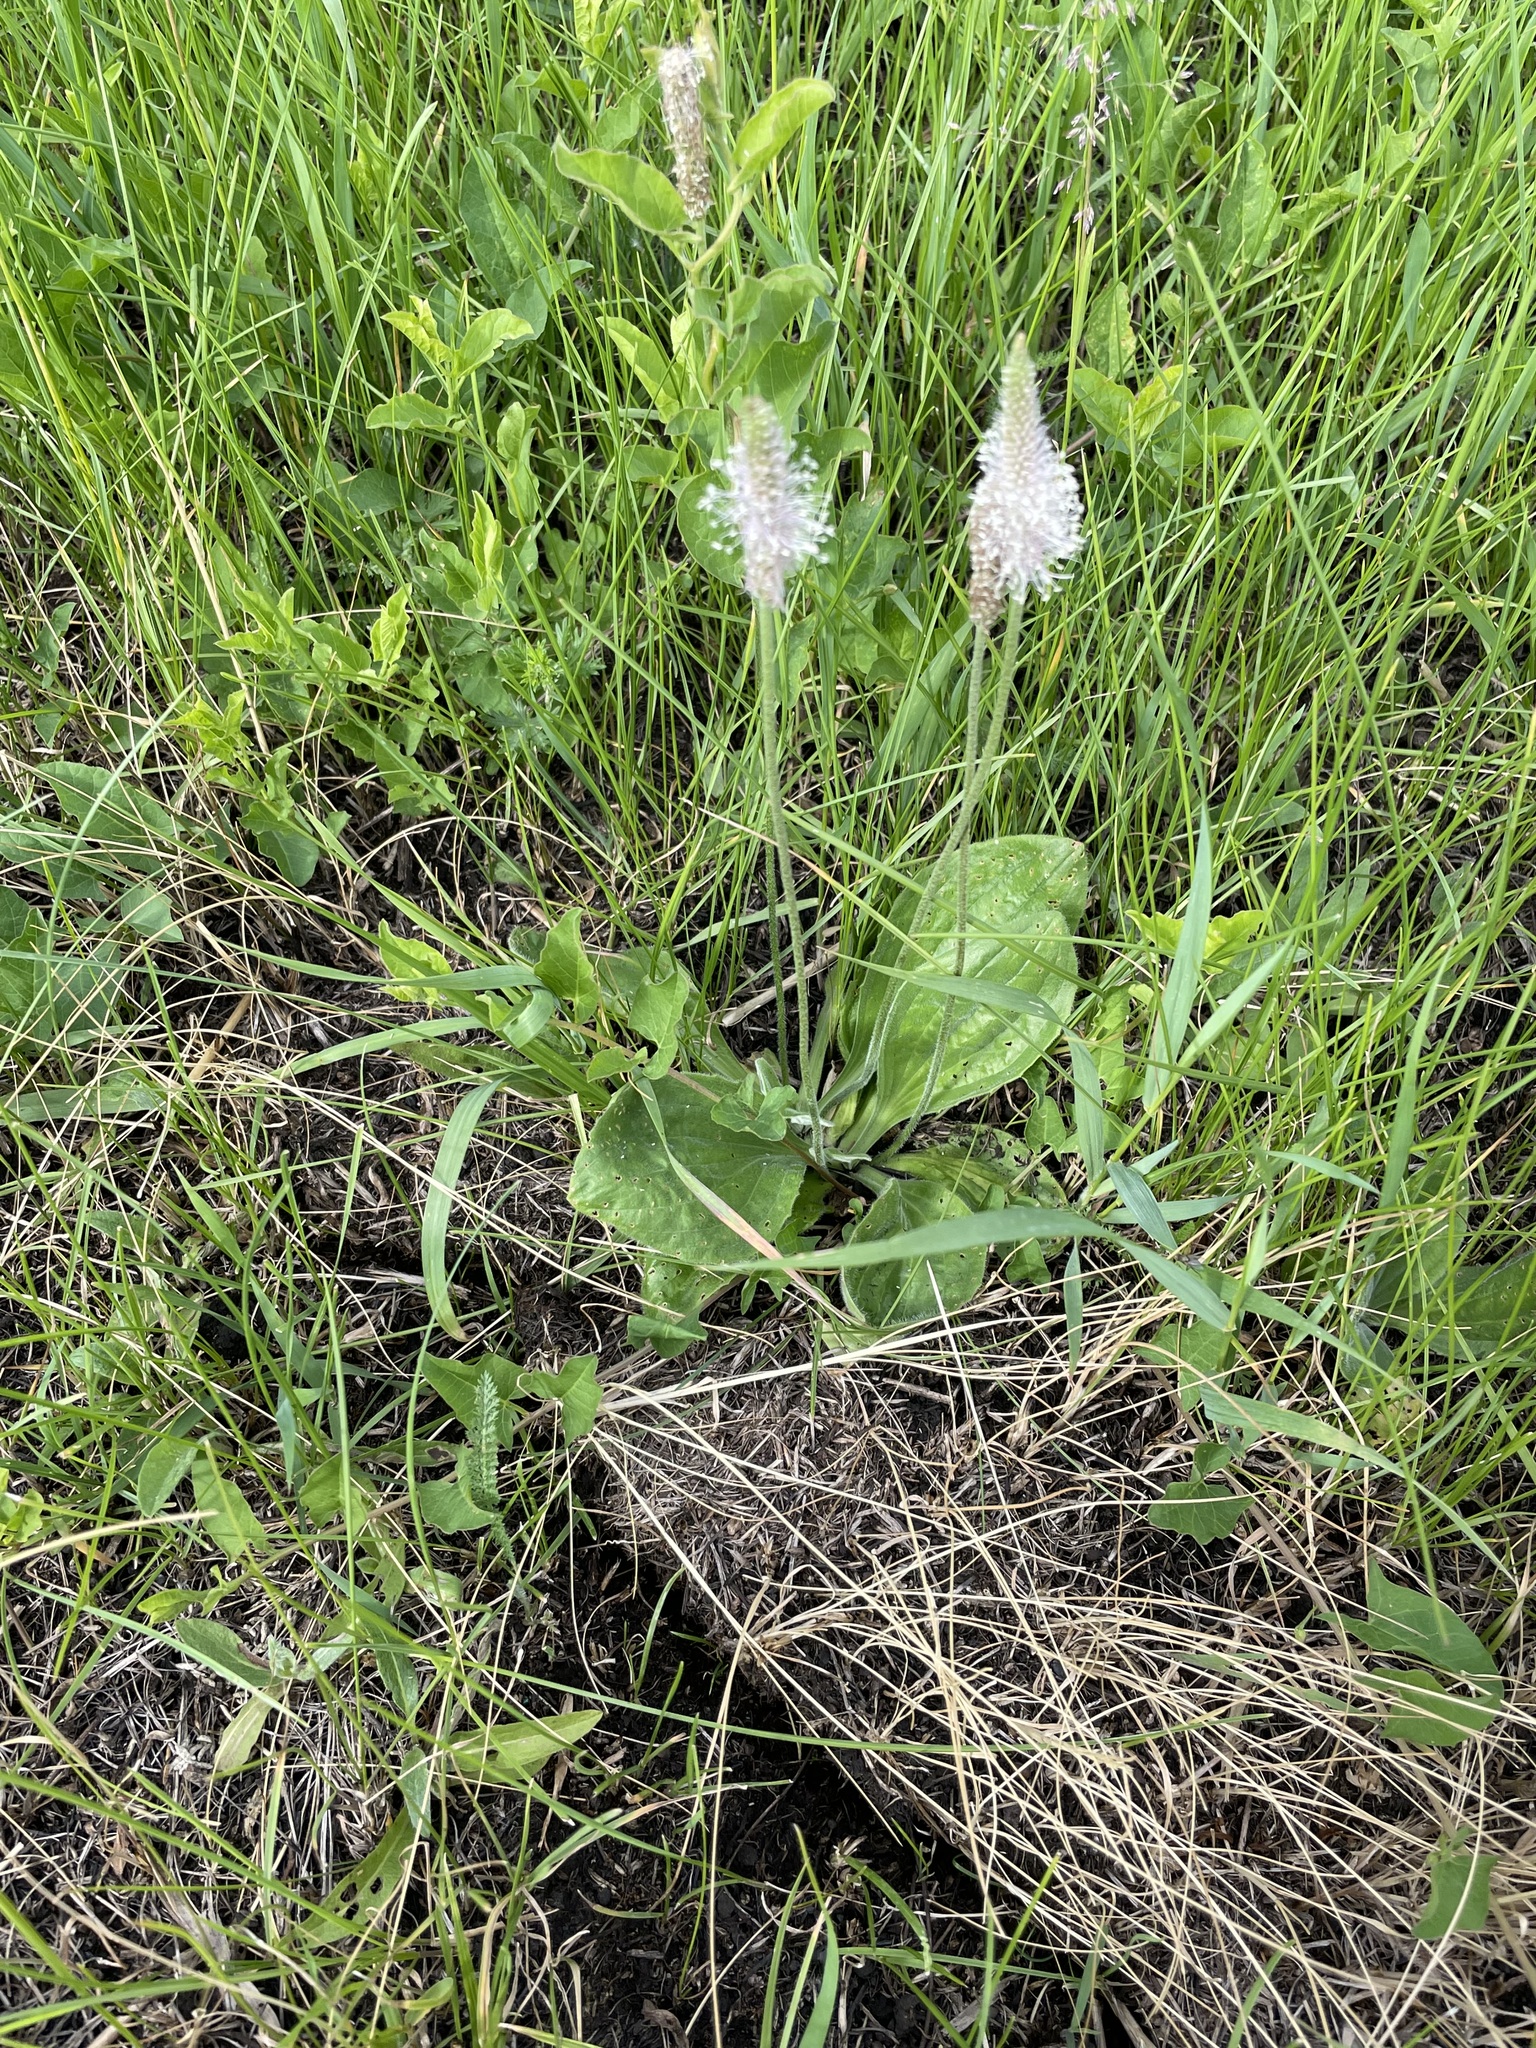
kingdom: Plantae
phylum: Tracheophyta
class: Magnoliopsida
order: Lamiales
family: Plantaginaceae
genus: Plantago
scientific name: Plantago media
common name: Hoary plantain
